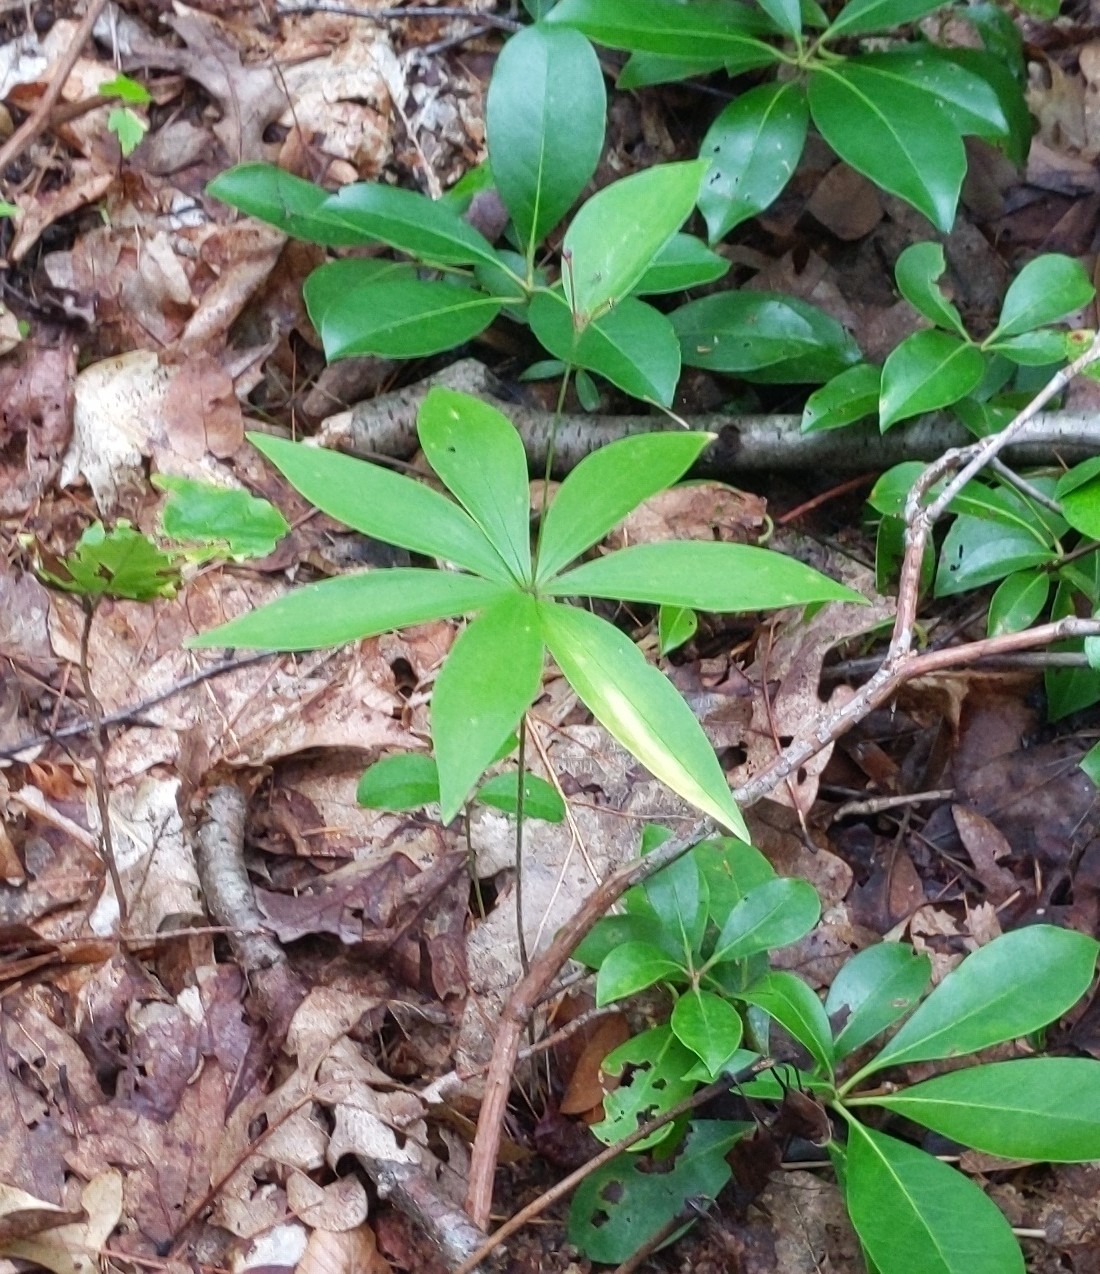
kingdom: Plantae
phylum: Tracheophyta
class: Liliopsida
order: Liliales
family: Liliaceae
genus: Medeola
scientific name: Medeola virginiana
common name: Indian cucumber-root
